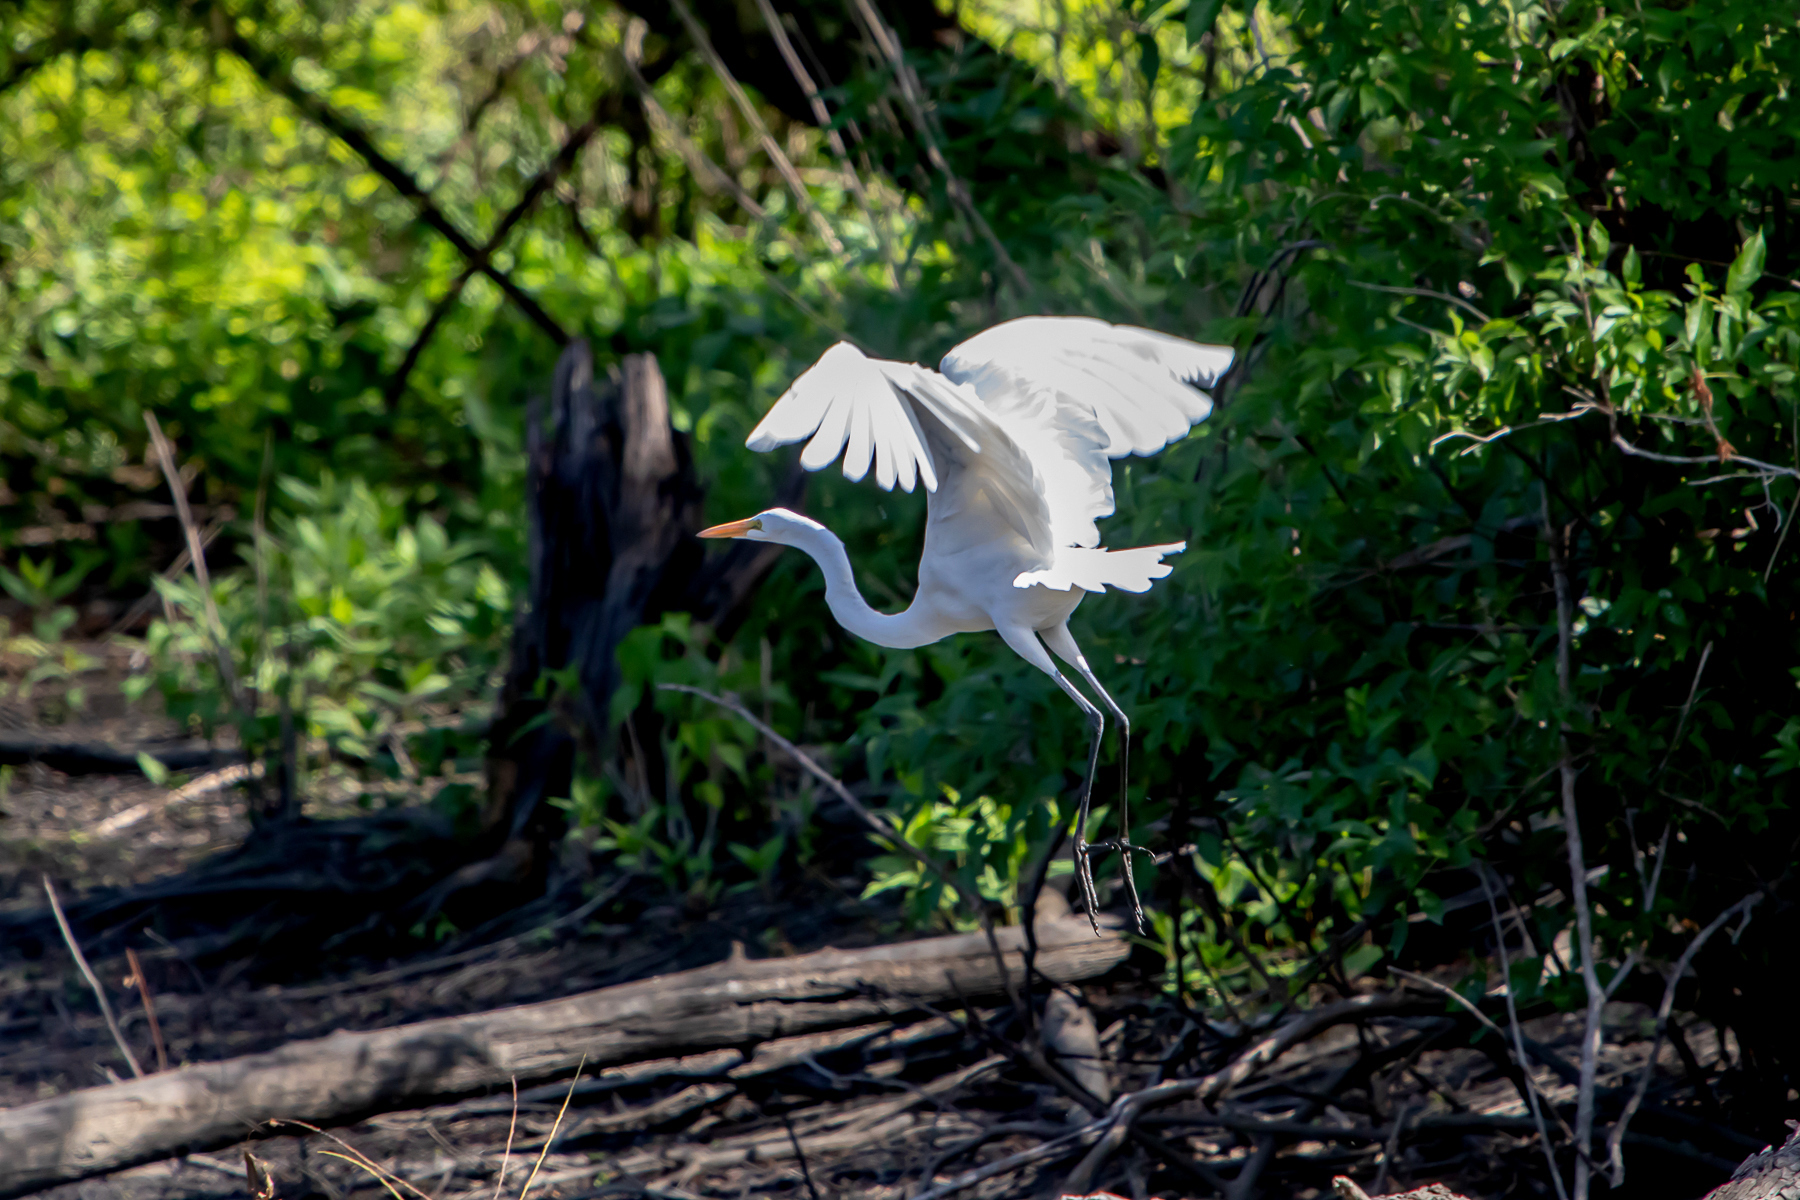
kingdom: Animalia
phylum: Chordata
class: Aves
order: Pelecaniformes
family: Ardeidae
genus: Ardea
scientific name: Ardea alba
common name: Great egret
